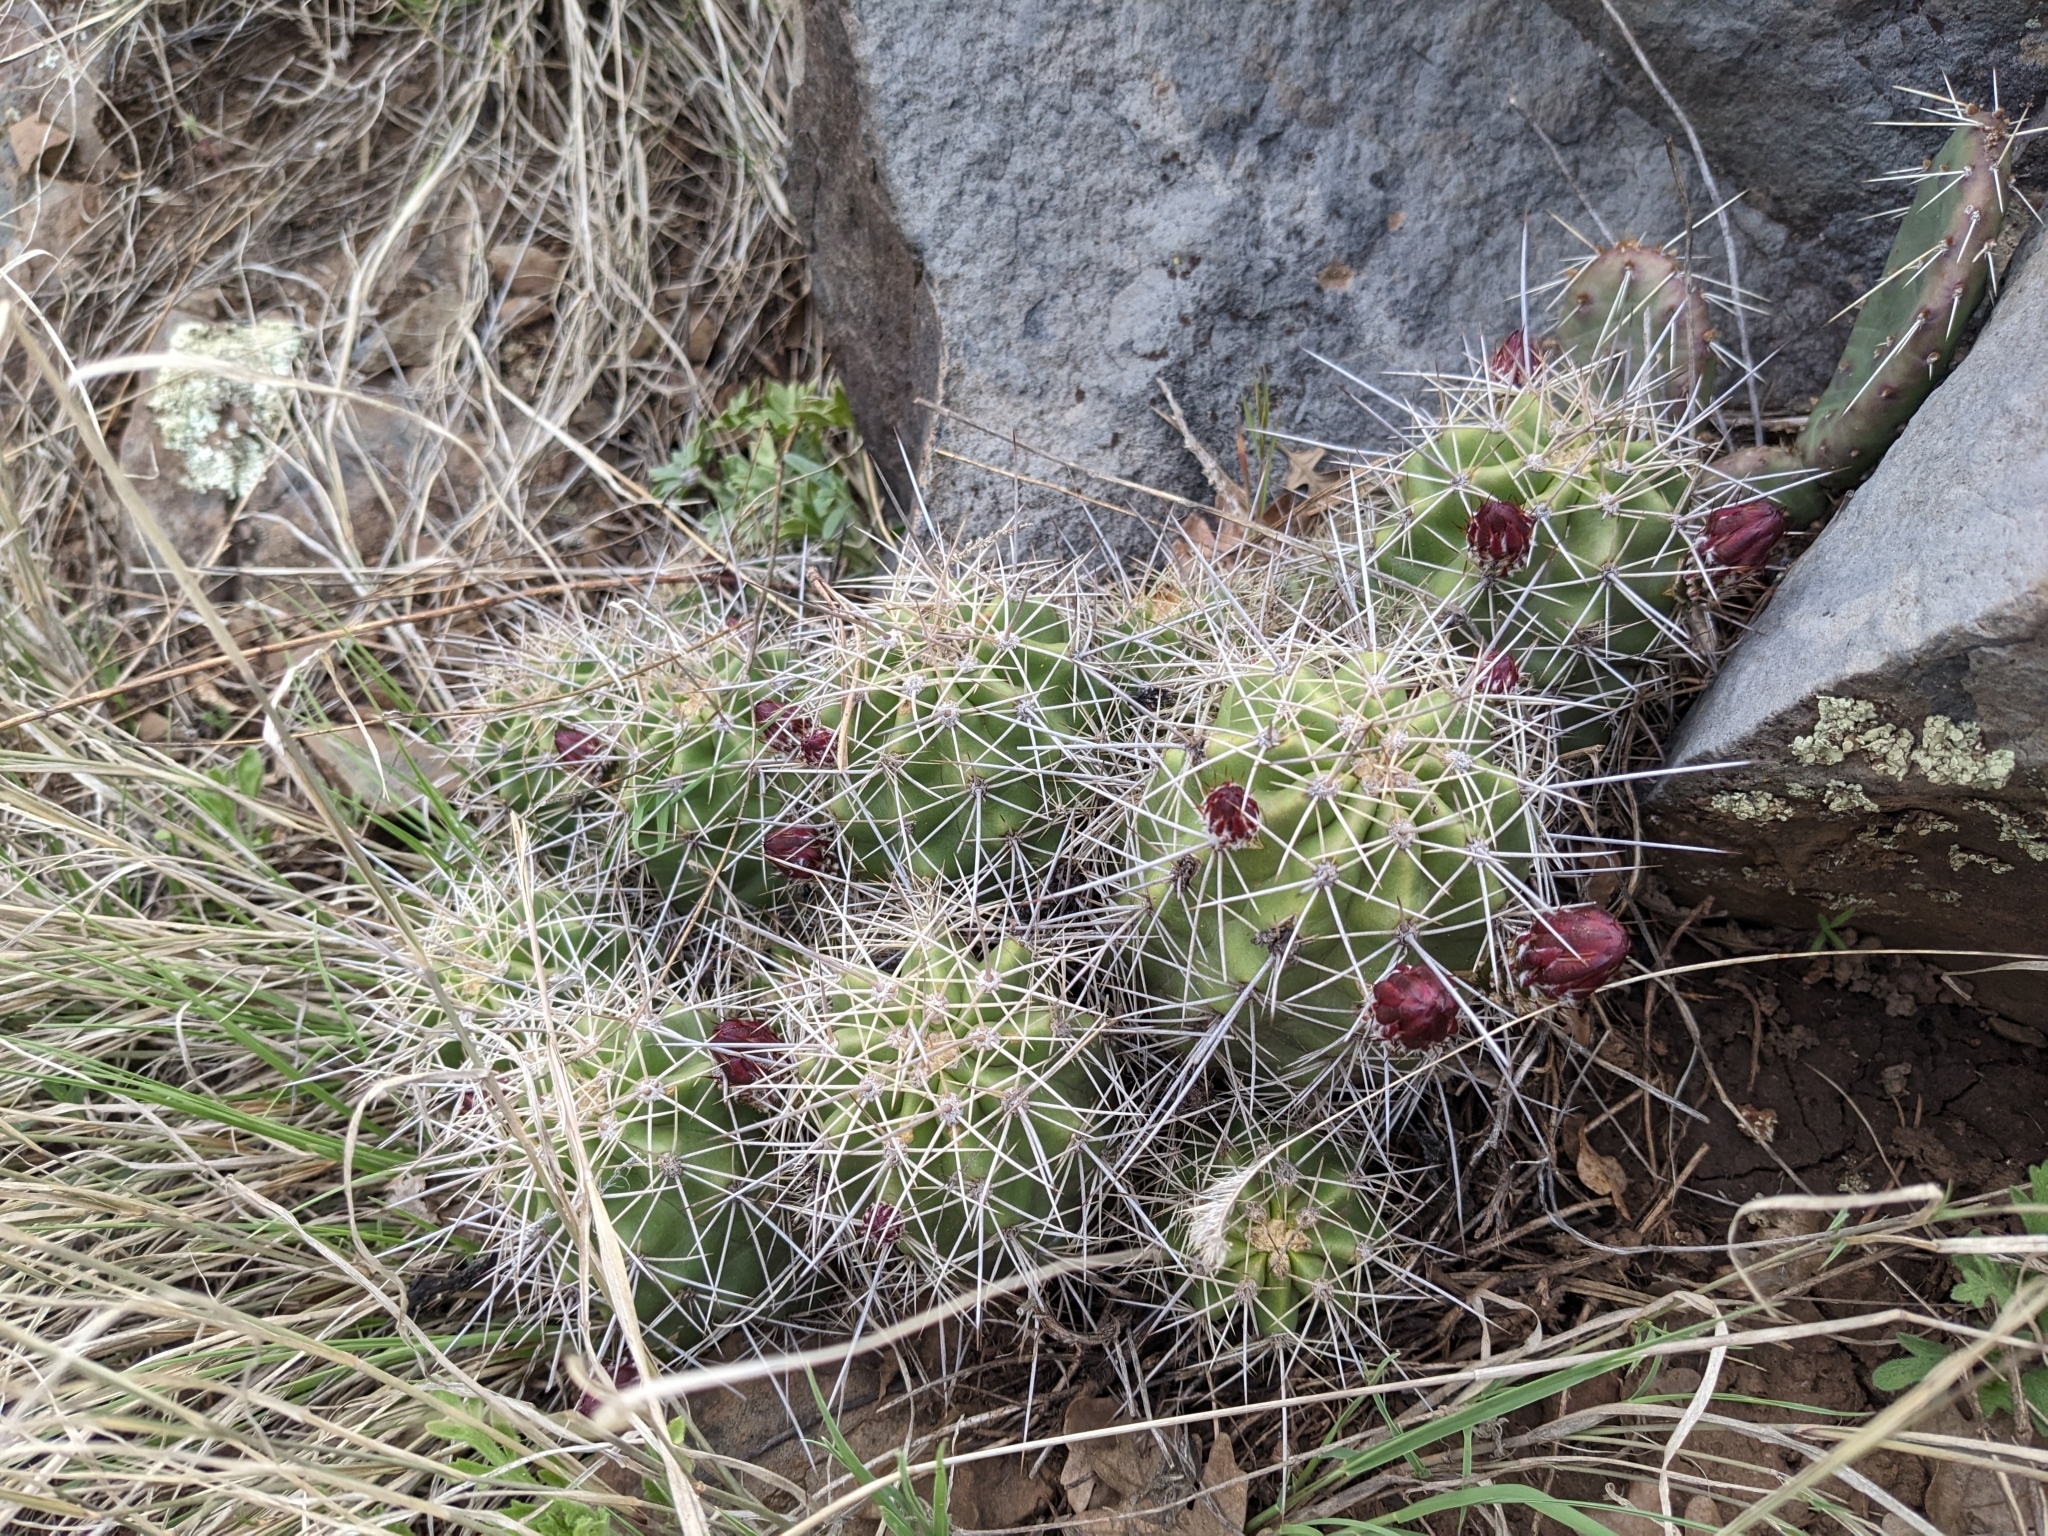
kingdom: Plantae
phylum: Tracheophyta
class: Magnoliopsida
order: Caryophyllales
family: Cactaceae
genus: Echinocereus
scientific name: Echinocereus bakeri
